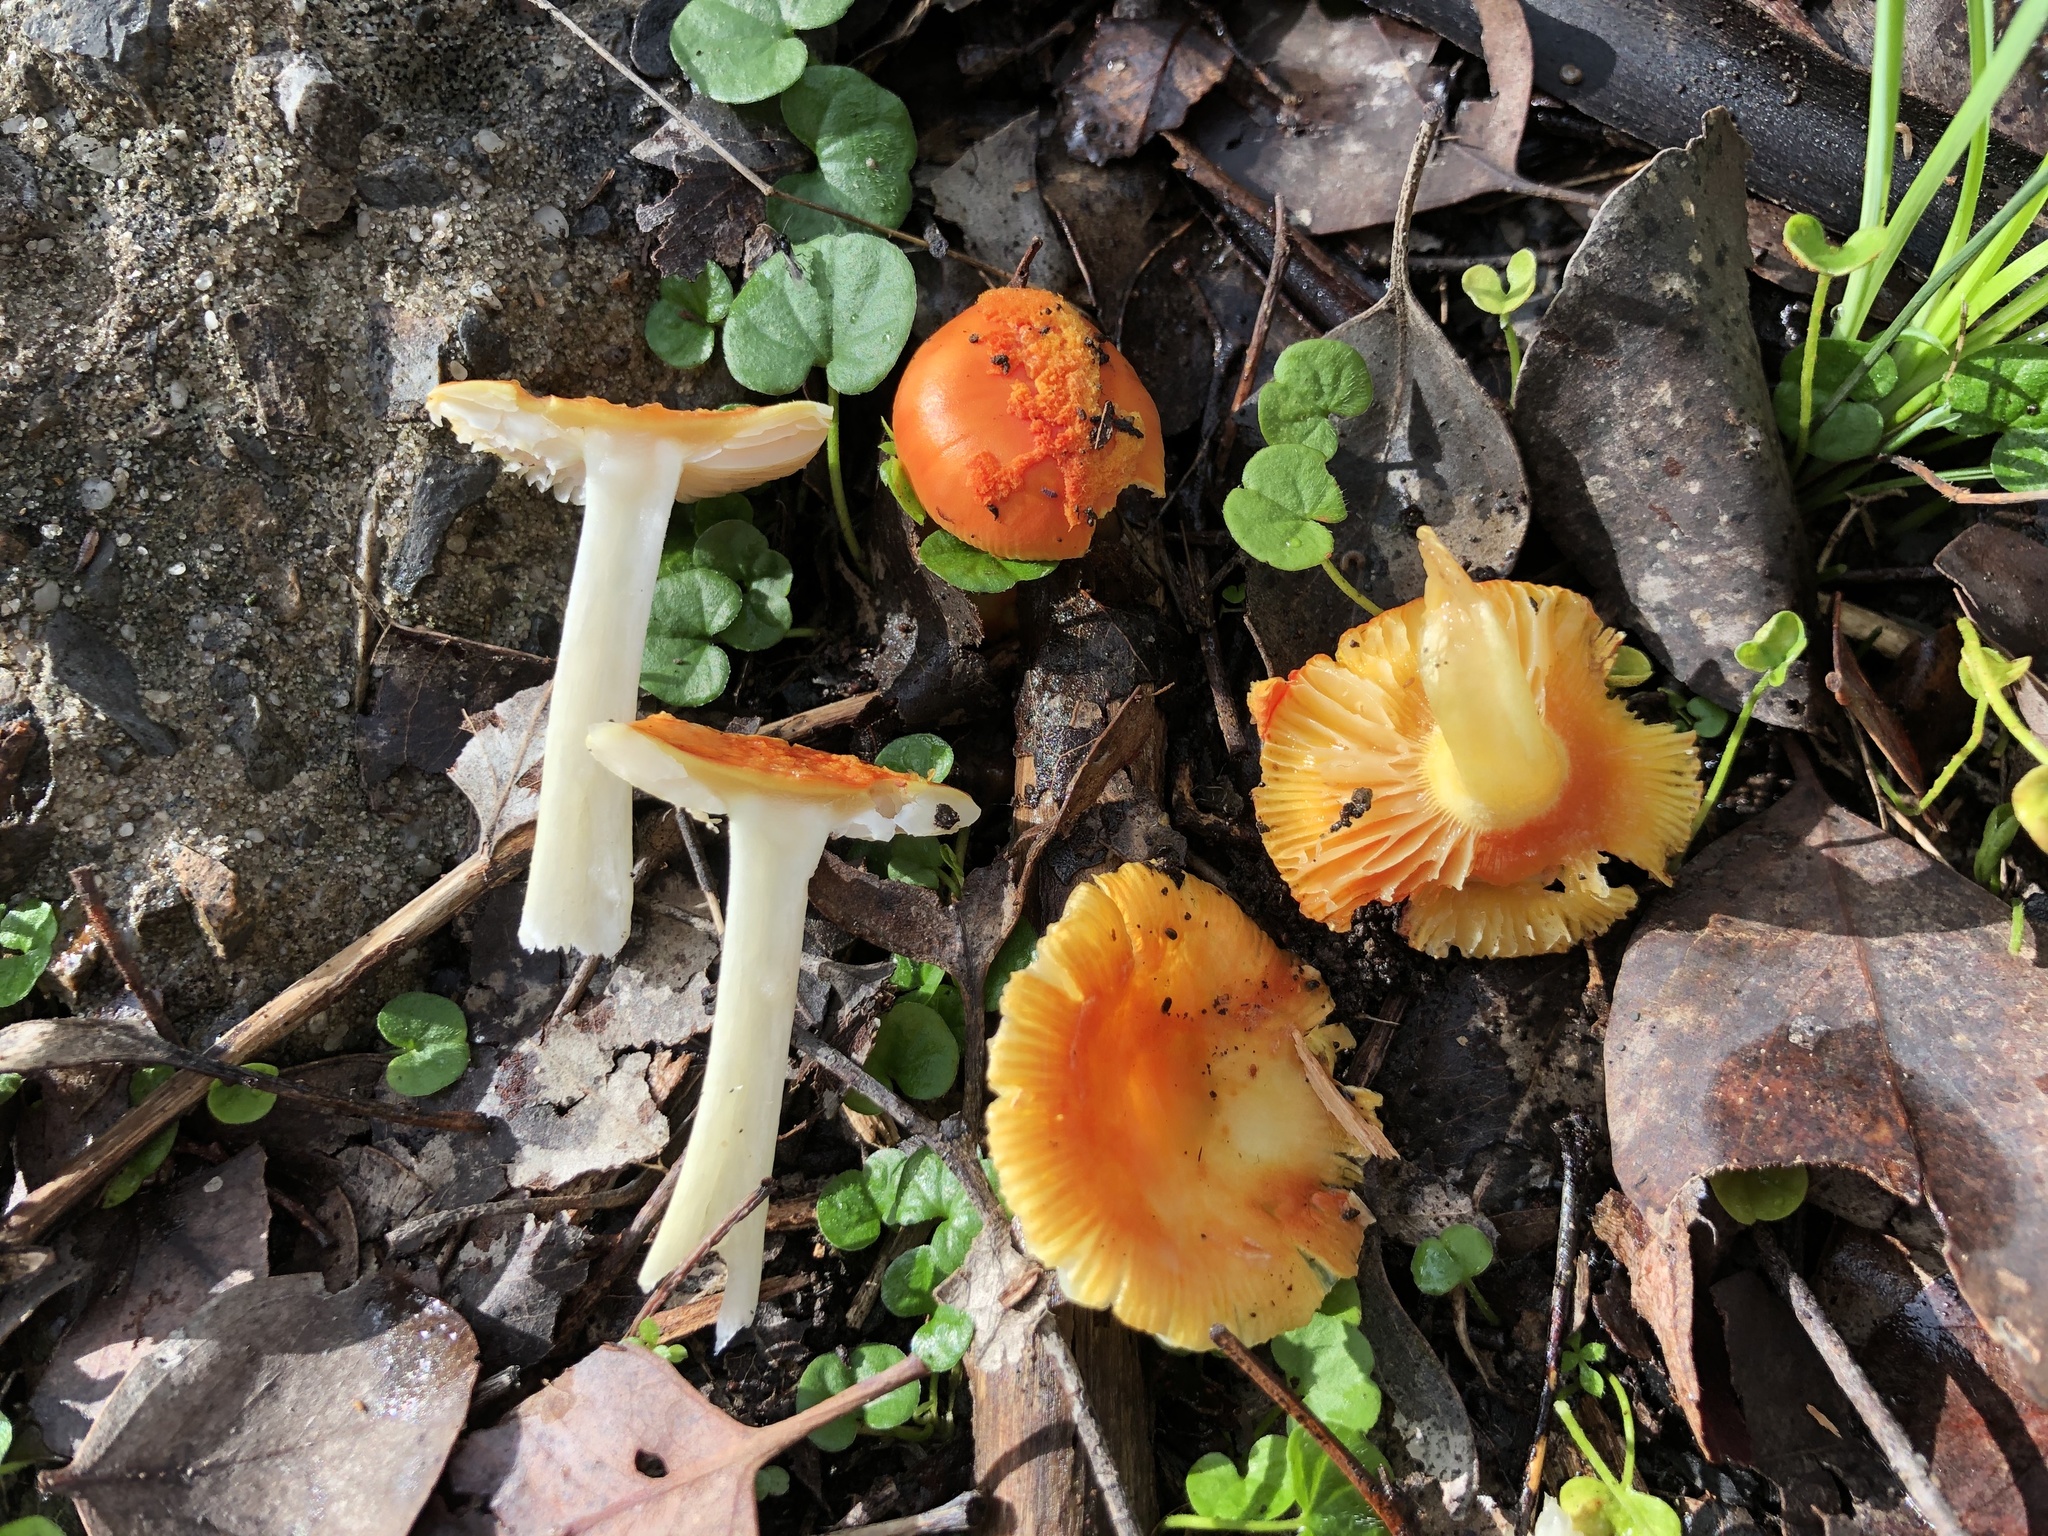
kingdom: Fungi
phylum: Basidiomycota
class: Agaricomycetes
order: Agaricales
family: Amanitaceae
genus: Amanita
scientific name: Amanita xanthocephala
